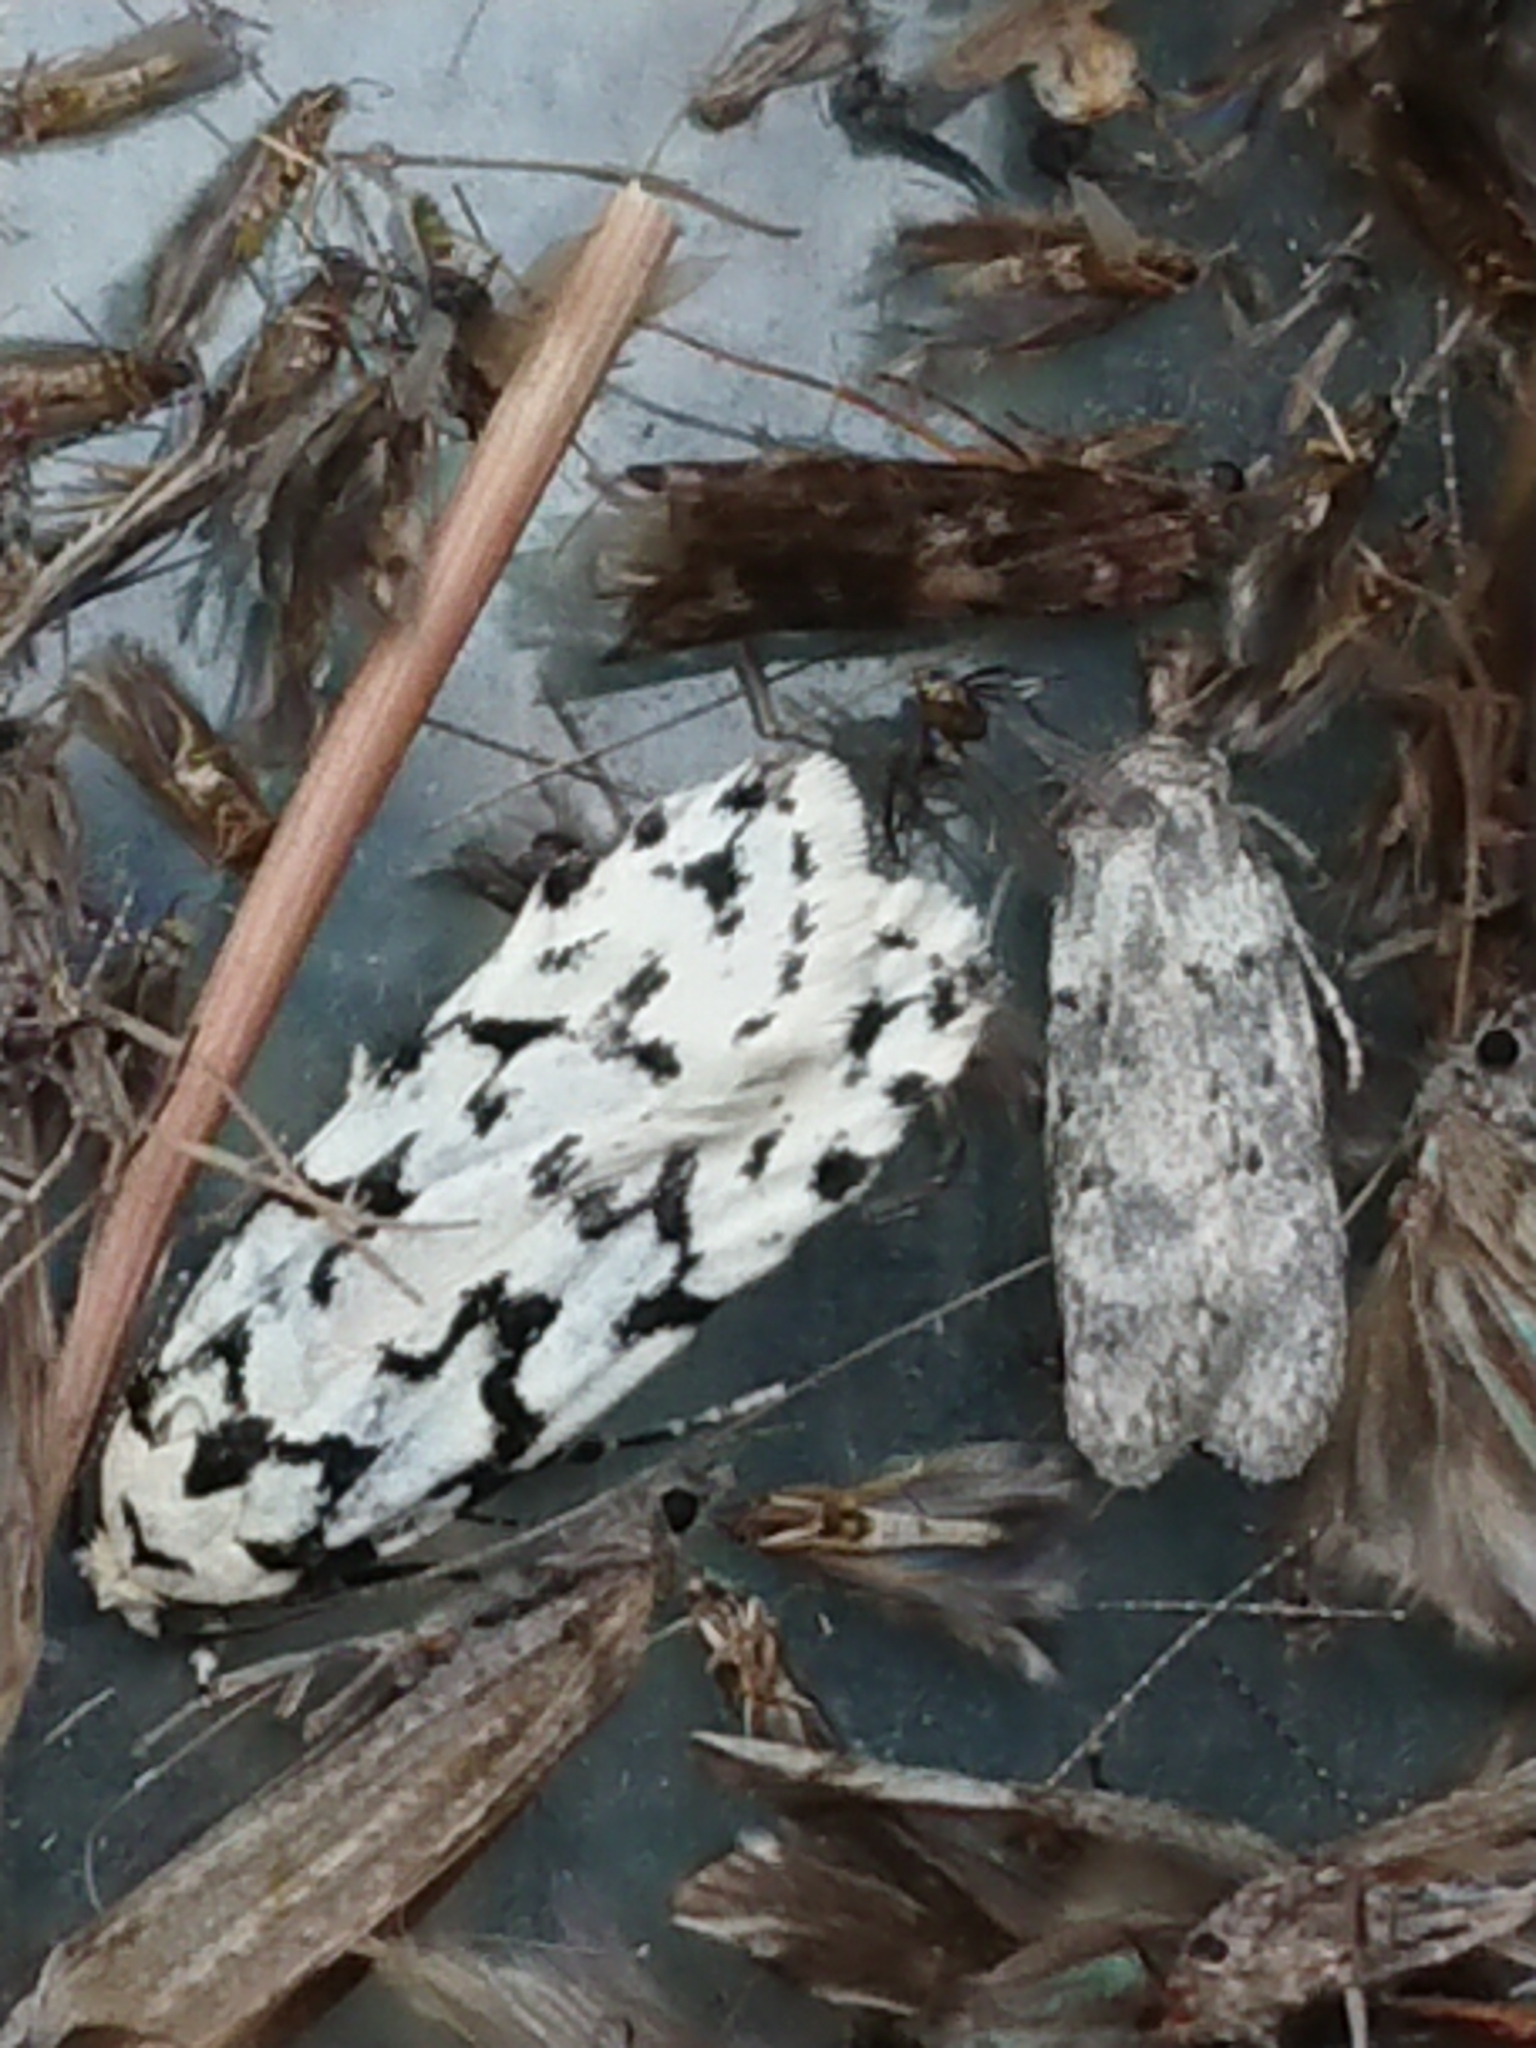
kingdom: Animalia
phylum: Arthropoda
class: Insecta
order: Lepidoptera
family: Oecophoridae
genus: Izatha
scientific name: Izatha katadiktya
